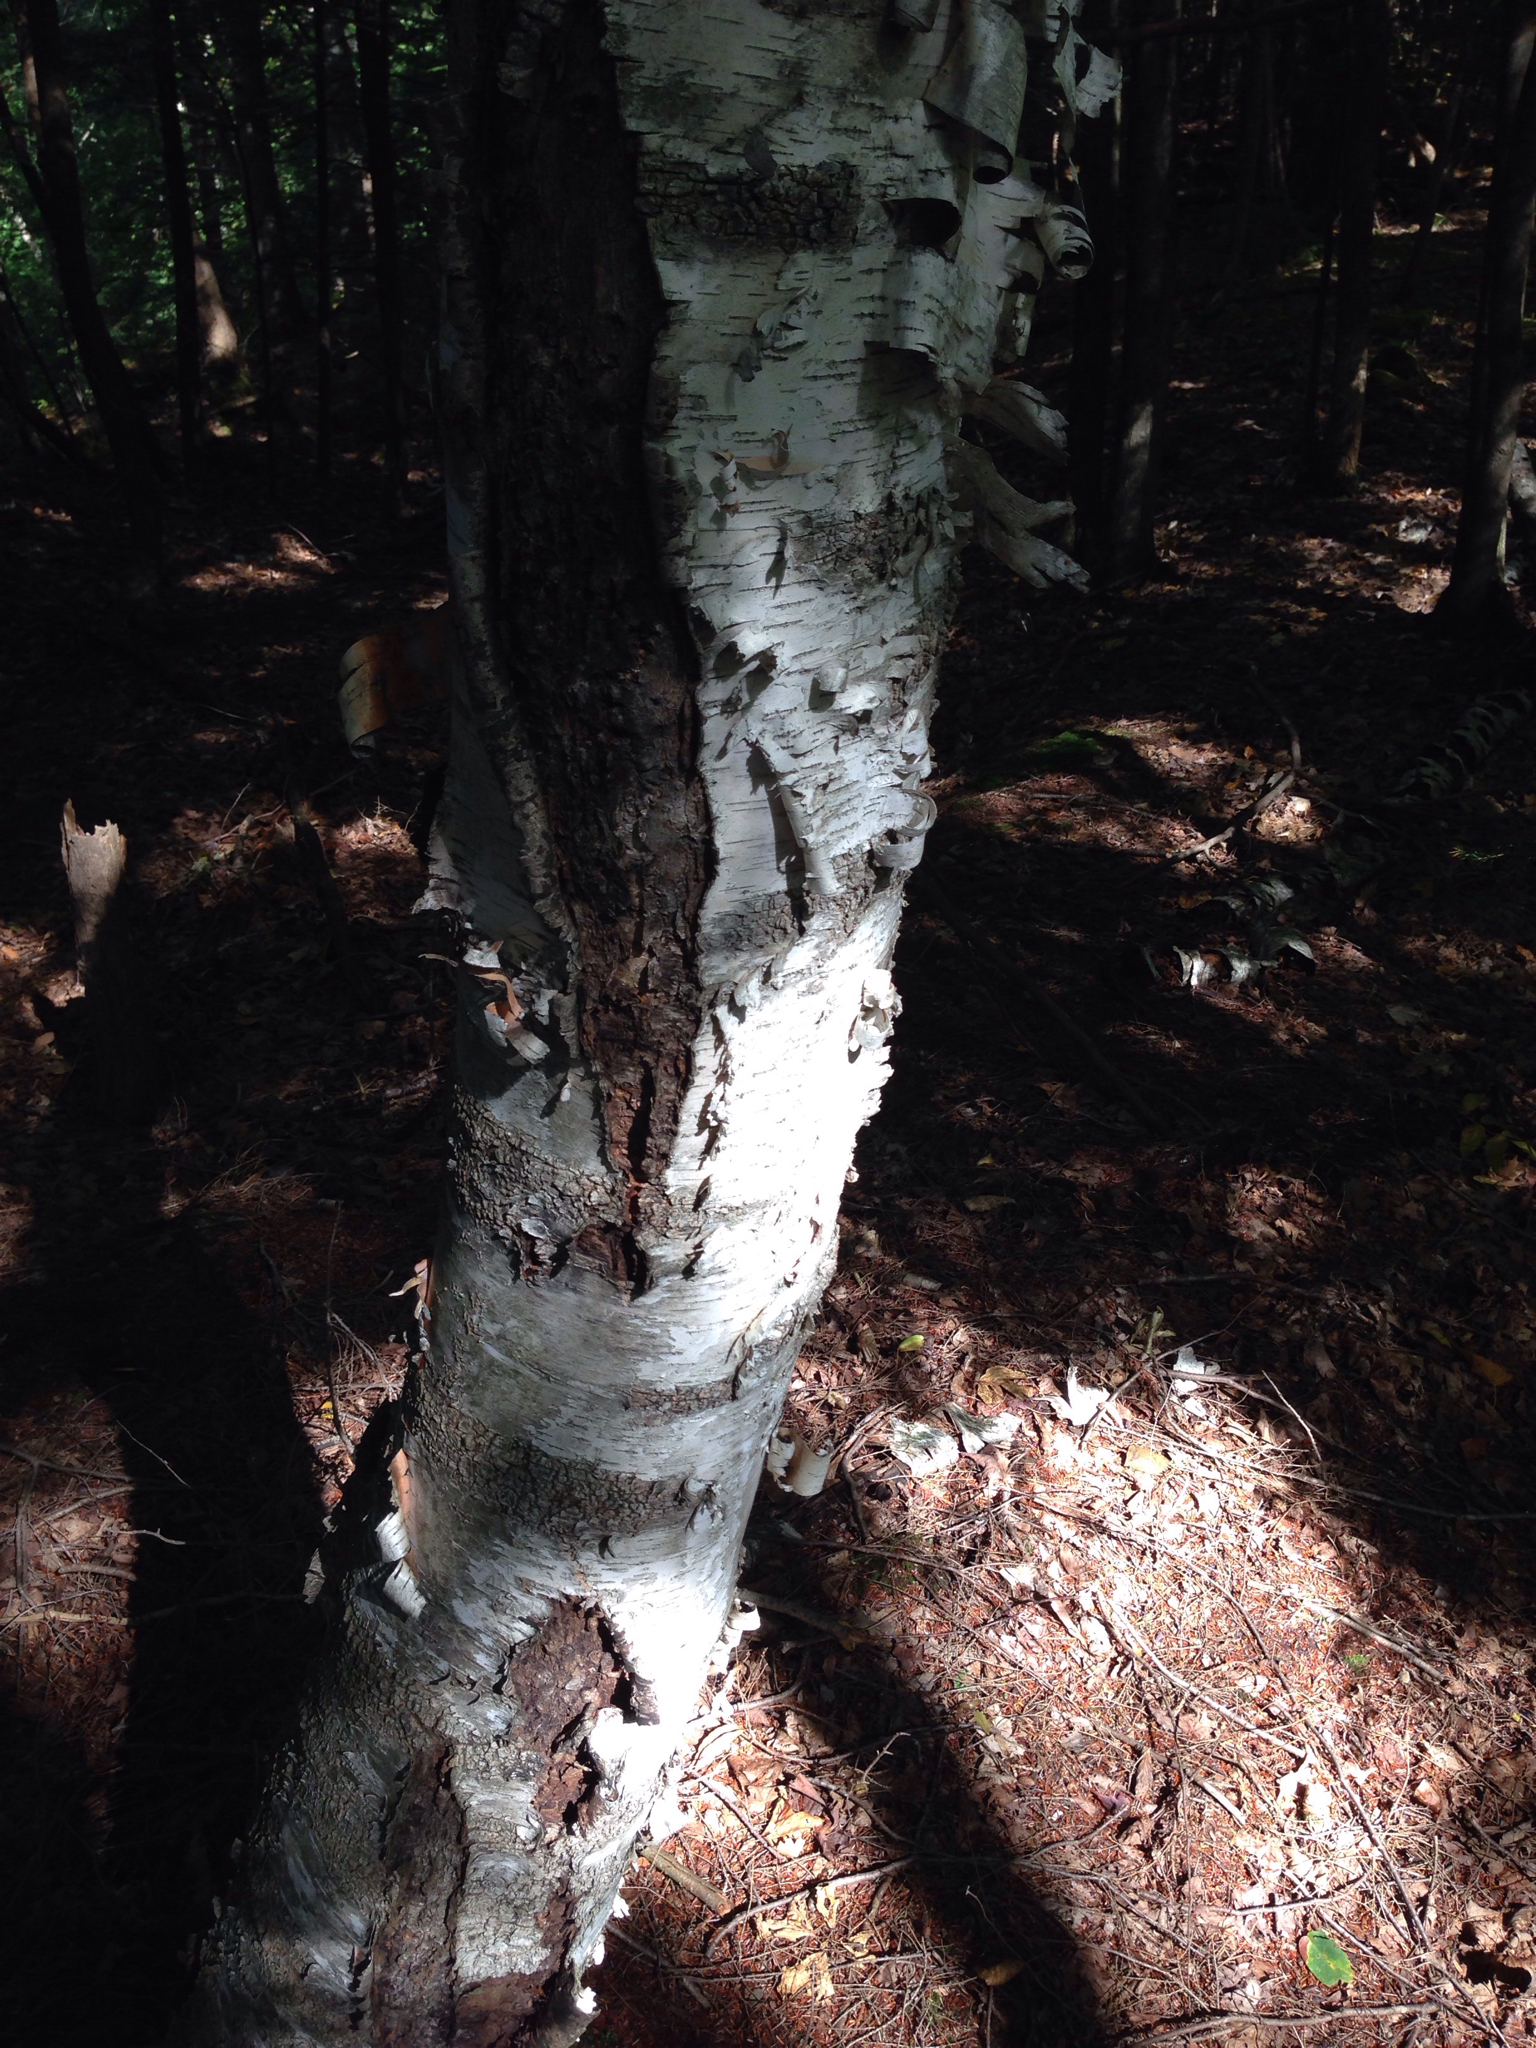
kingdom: Plantae
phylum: Tracheophyta
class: Magnoliopsida
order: Fagales
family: Betulaceae
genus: Betula
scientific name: Betula papyrifera
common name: Paper birch
